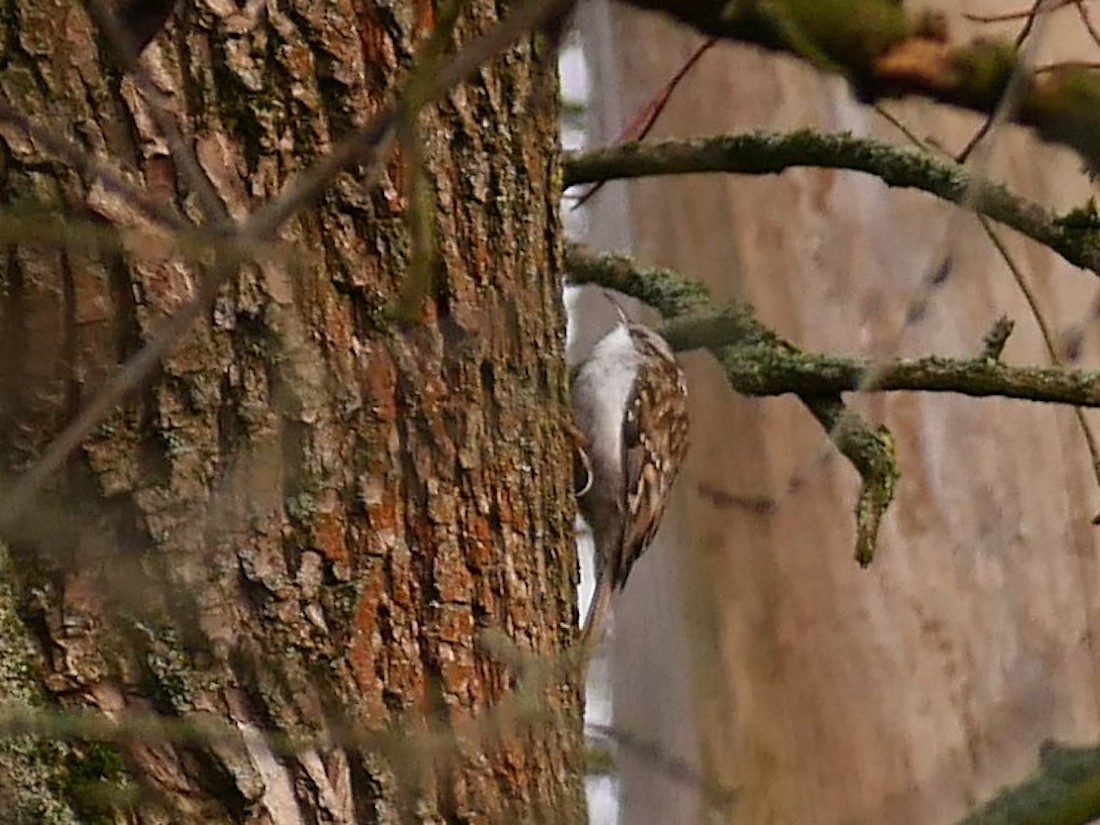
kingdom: Animalia
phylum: Chordata
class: Aves
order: Passeriformes
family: Certhiidae
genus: Certhia
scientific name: Certhia familiaris
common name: Eurasian treecreeper
